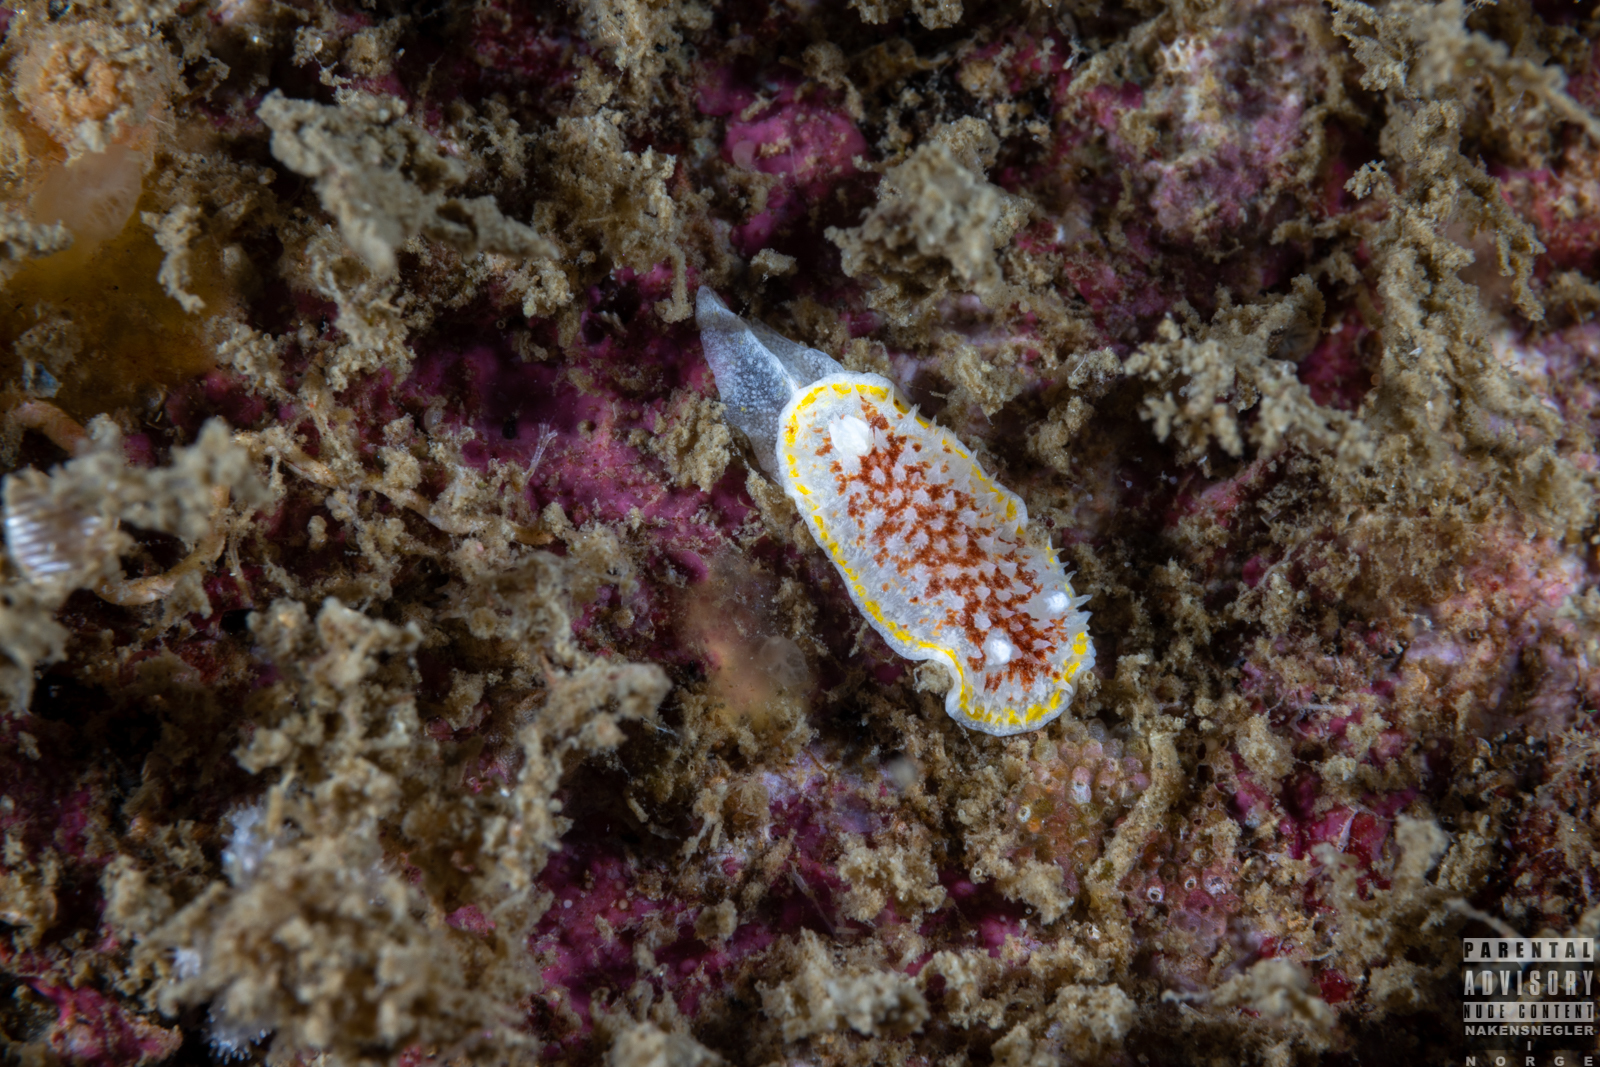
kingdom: Animalia
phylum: Mollusca
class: Gastropoda
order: Nudibranchia
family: Calycidorididae
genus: Diaphorodoris
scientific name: Diaphorodoris luteocincta
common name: Fried egg nudibranch
